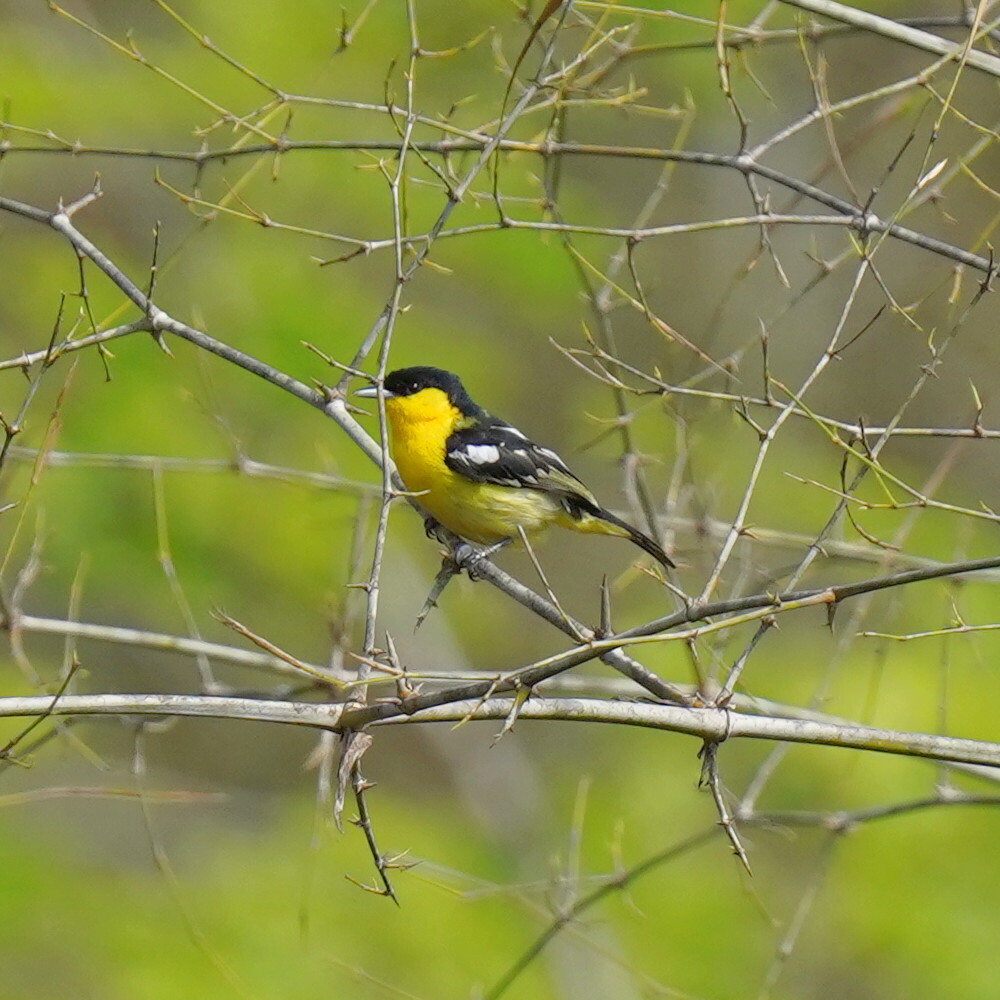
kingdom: Animalia
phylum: Chordata
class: Aves
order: Passeriformes
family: Aegithinidae
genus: Aegithina
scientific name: Aegithina tiphia
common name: Common iora
